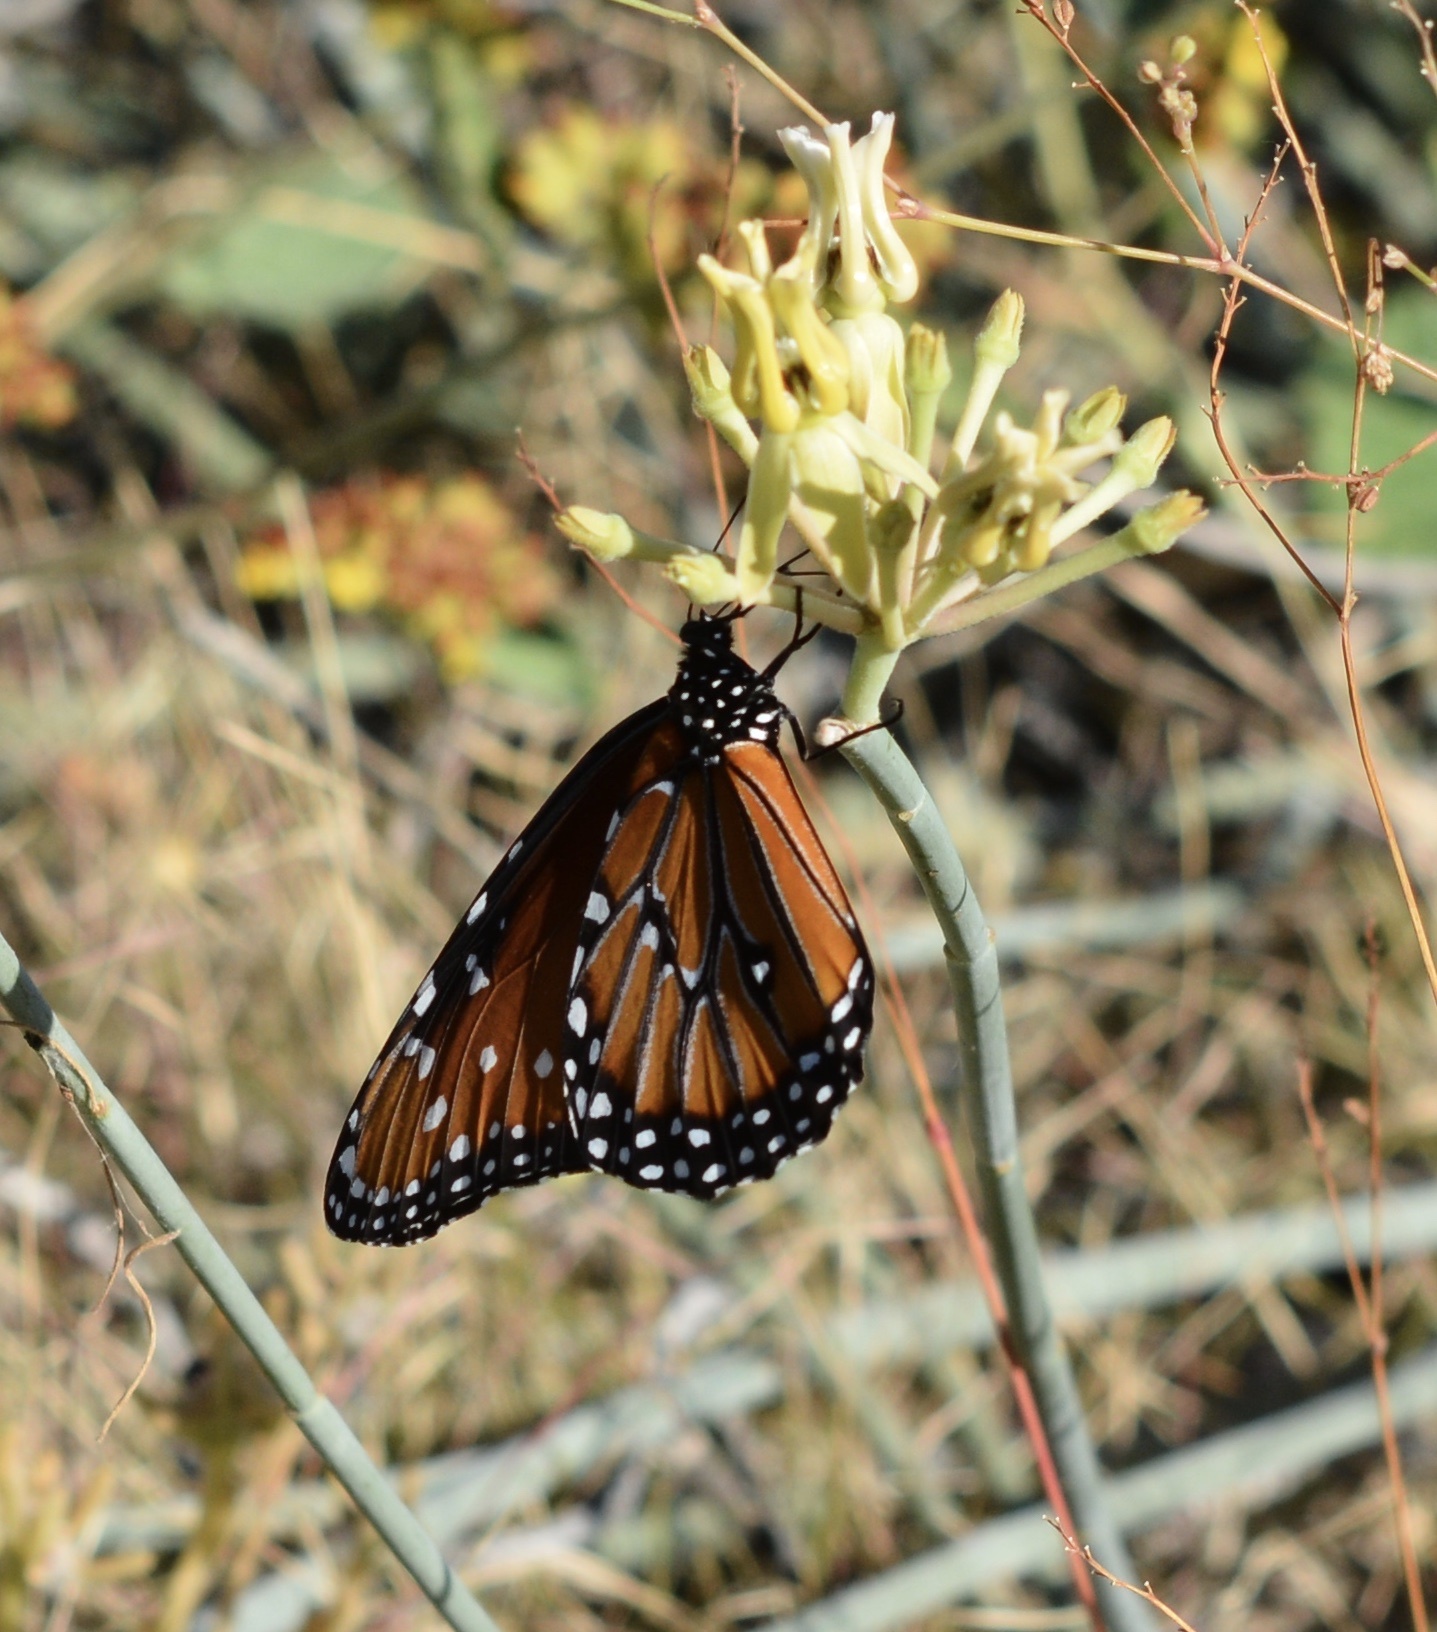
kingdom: Animalia
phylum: Arthropoda
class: Insecta
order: Lepidoptera
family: Nymphalidae
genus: Danaus
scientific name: Danaus gilippus
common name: Queen
